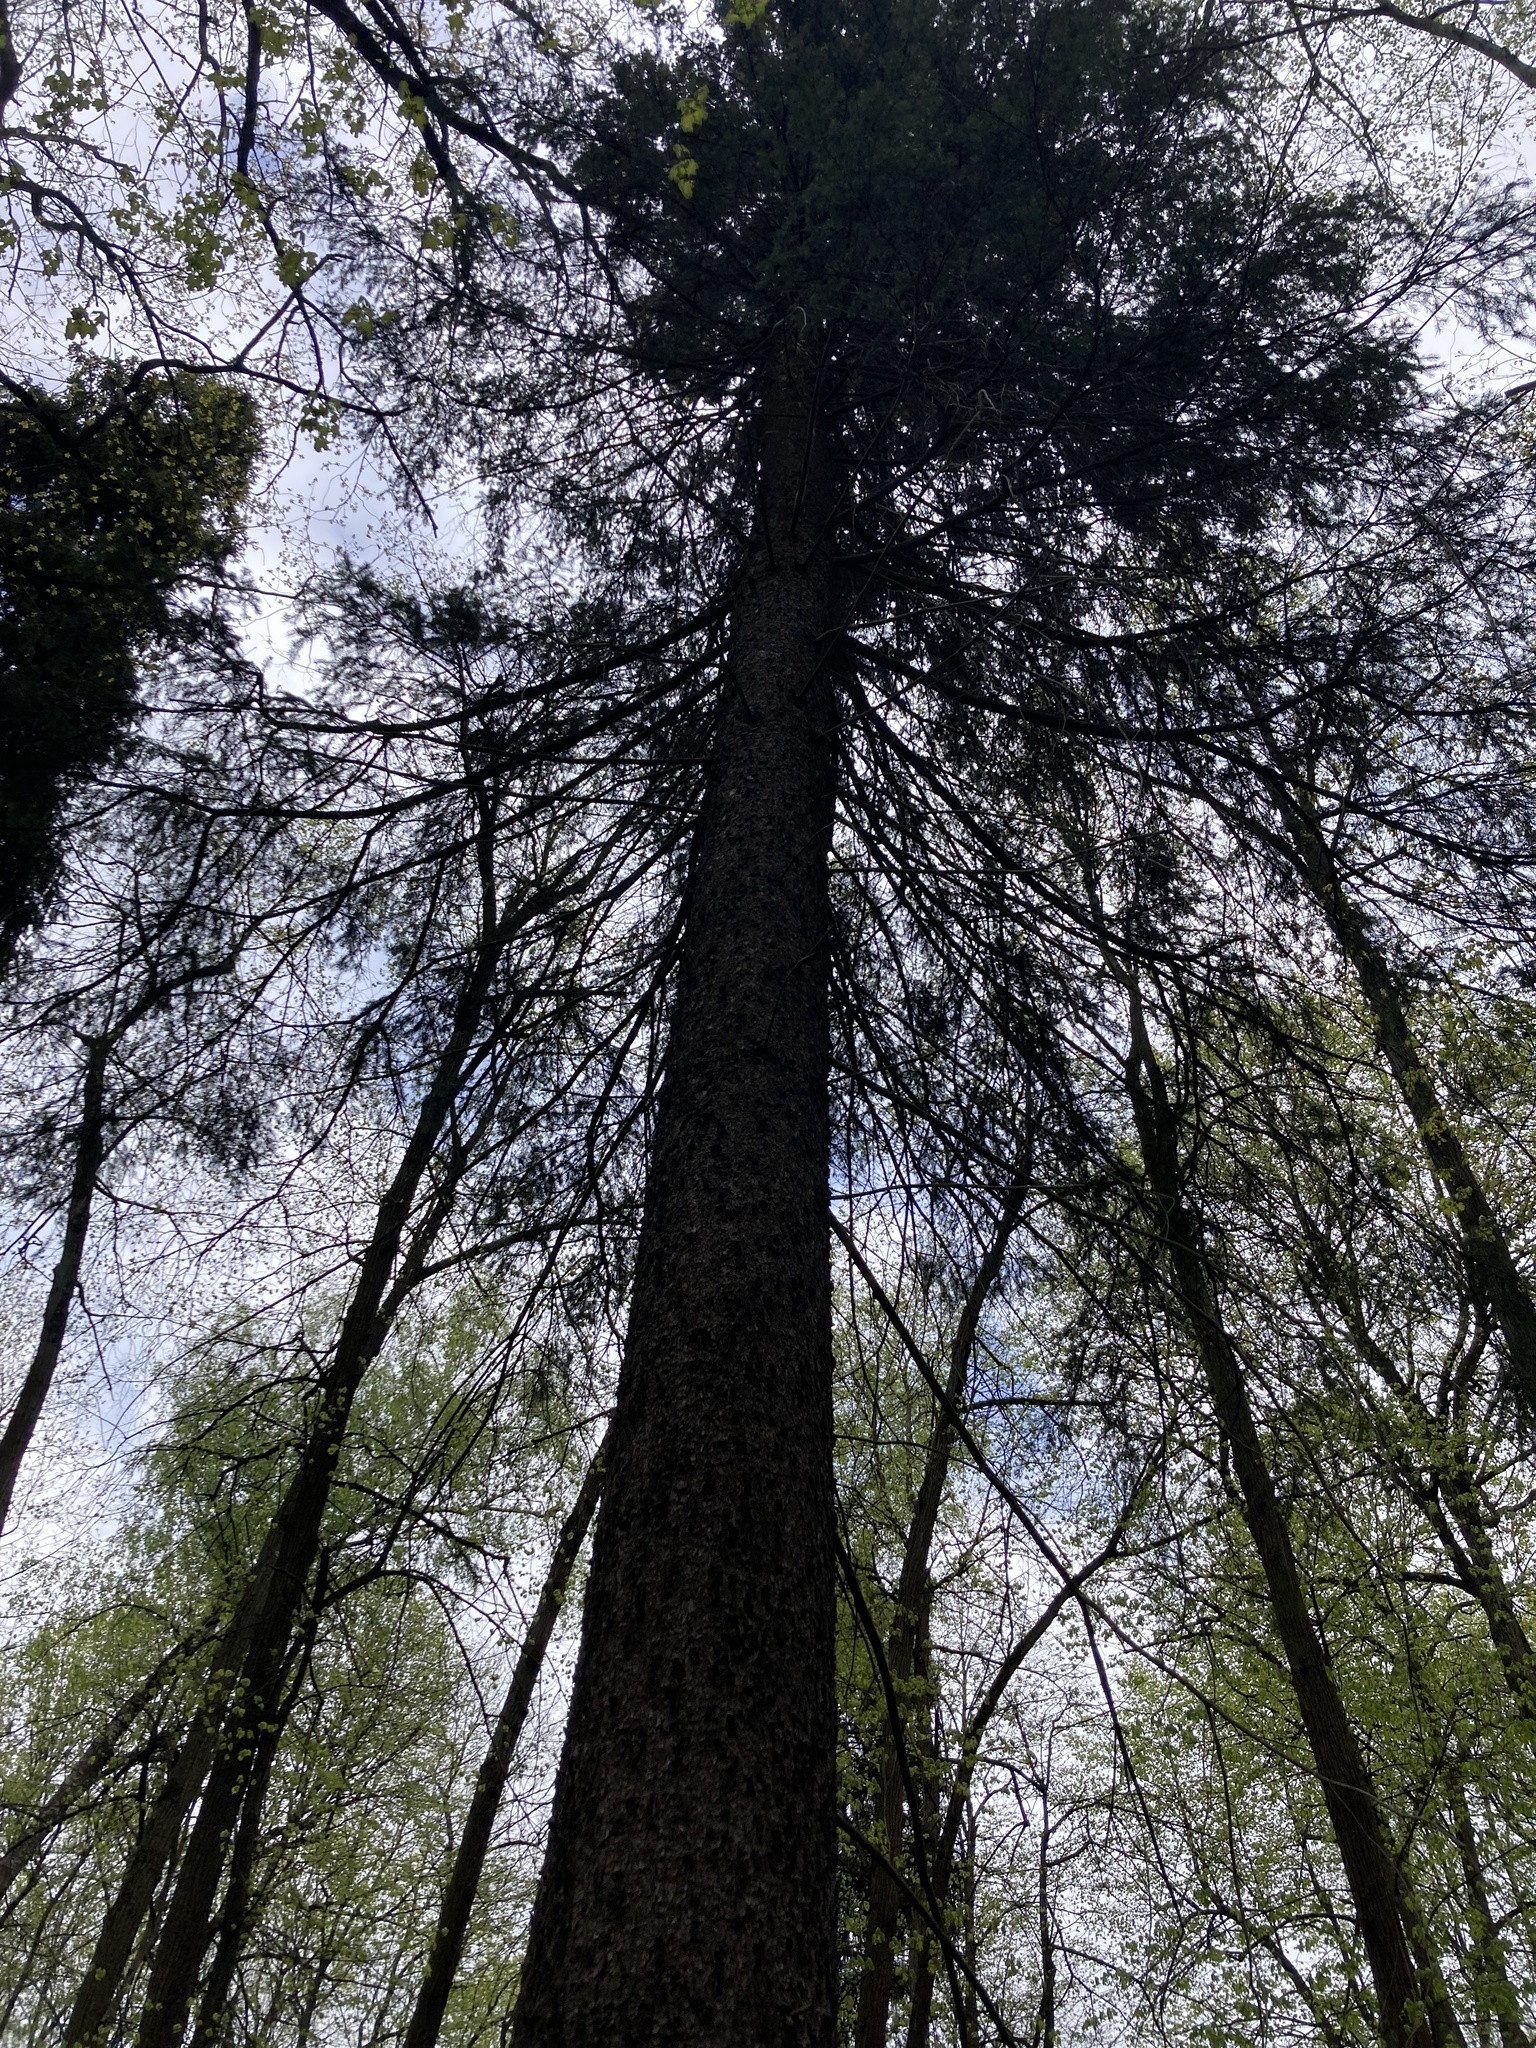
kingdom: Plantae
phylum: Tracheophyta
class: Pinopsida
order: Pinales
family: Pinaceae
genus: Picea
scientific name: Picea abies
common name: Norway spruce
